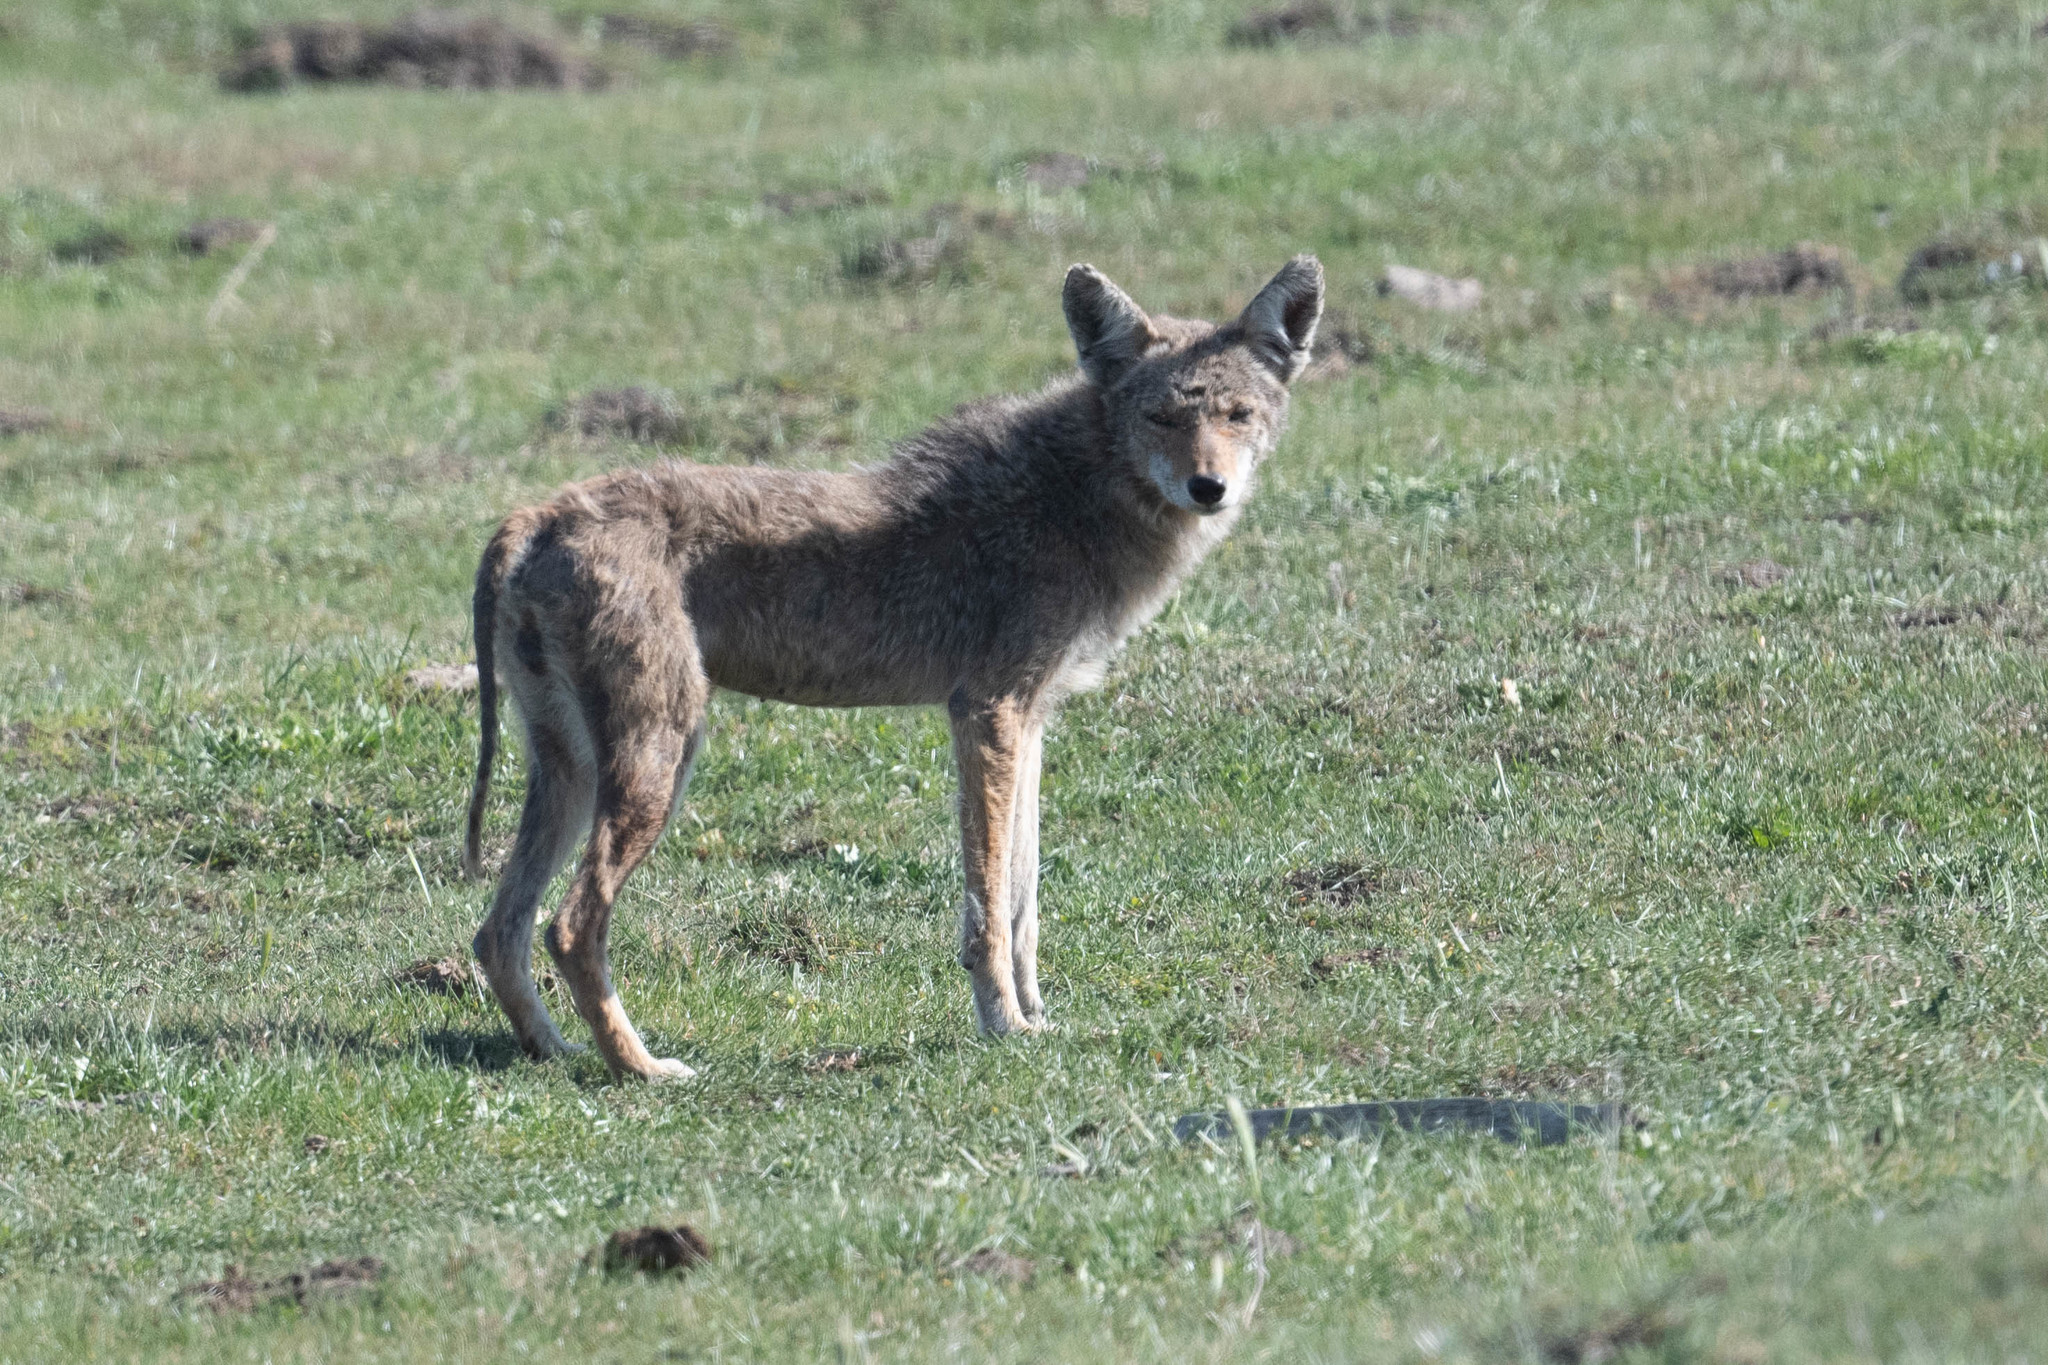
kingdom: Animalia
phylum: Chordata
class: Mammalia
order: Carnivora
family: Canidae
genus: Canis
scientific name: Canis latrans
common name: Coyote
